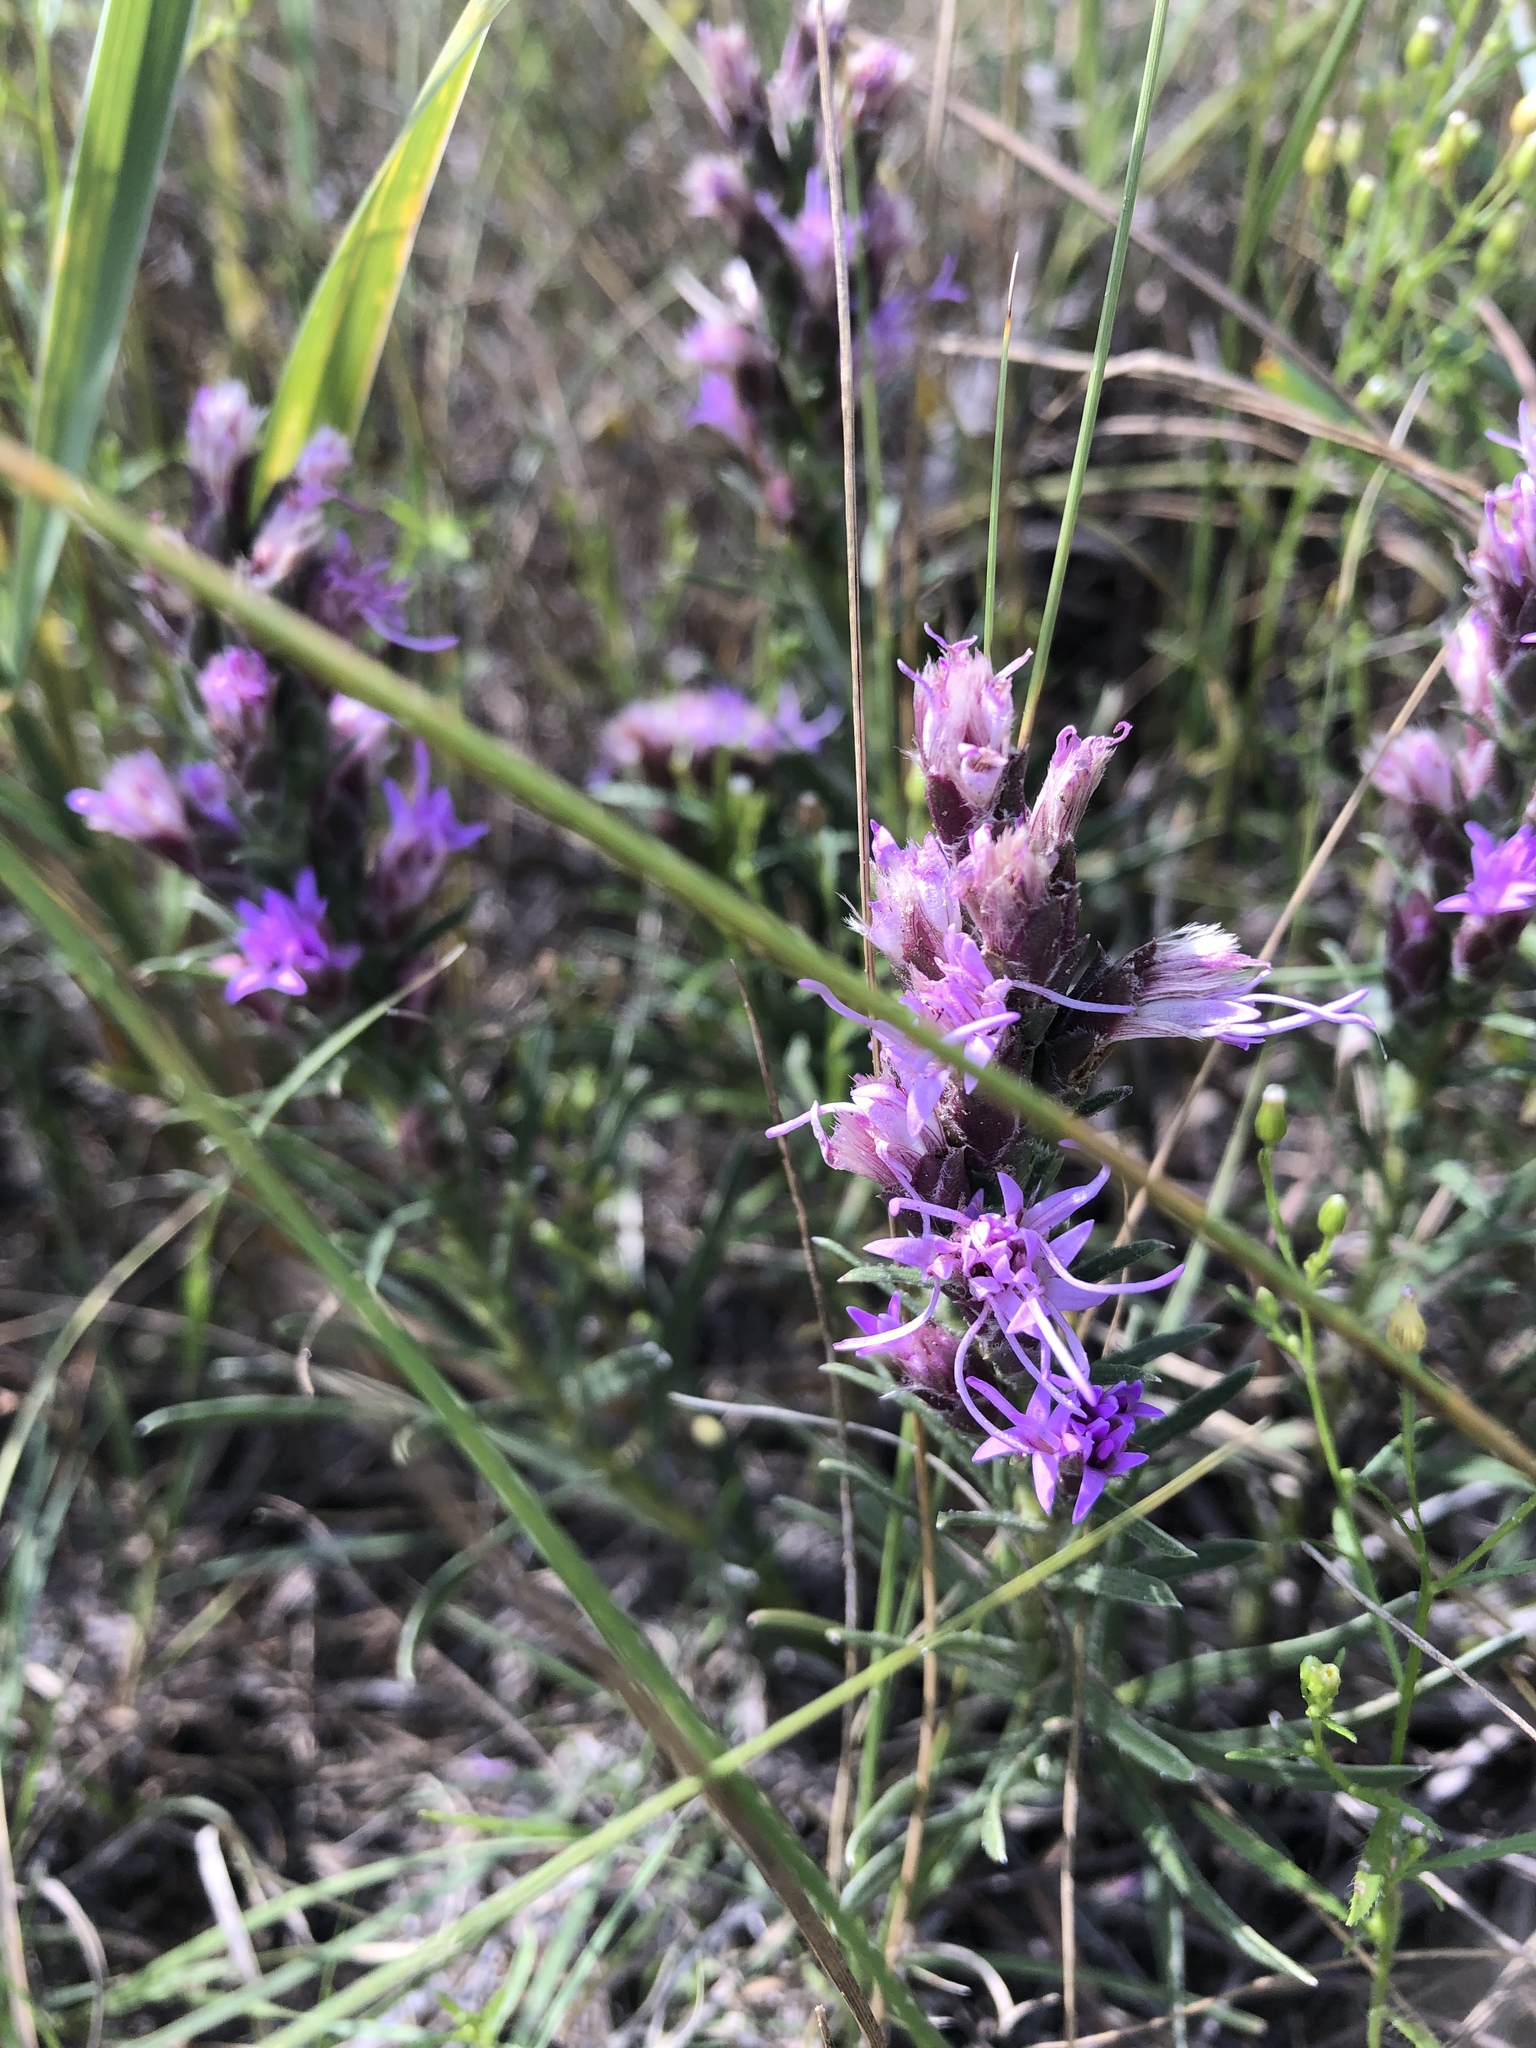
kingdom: Plantae
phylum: Tracheophyta
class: Magnoliopsida
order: Asterales
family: Asteraceae
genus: Liatris
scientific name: Liatris punctata
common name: Dotted gayfeather
